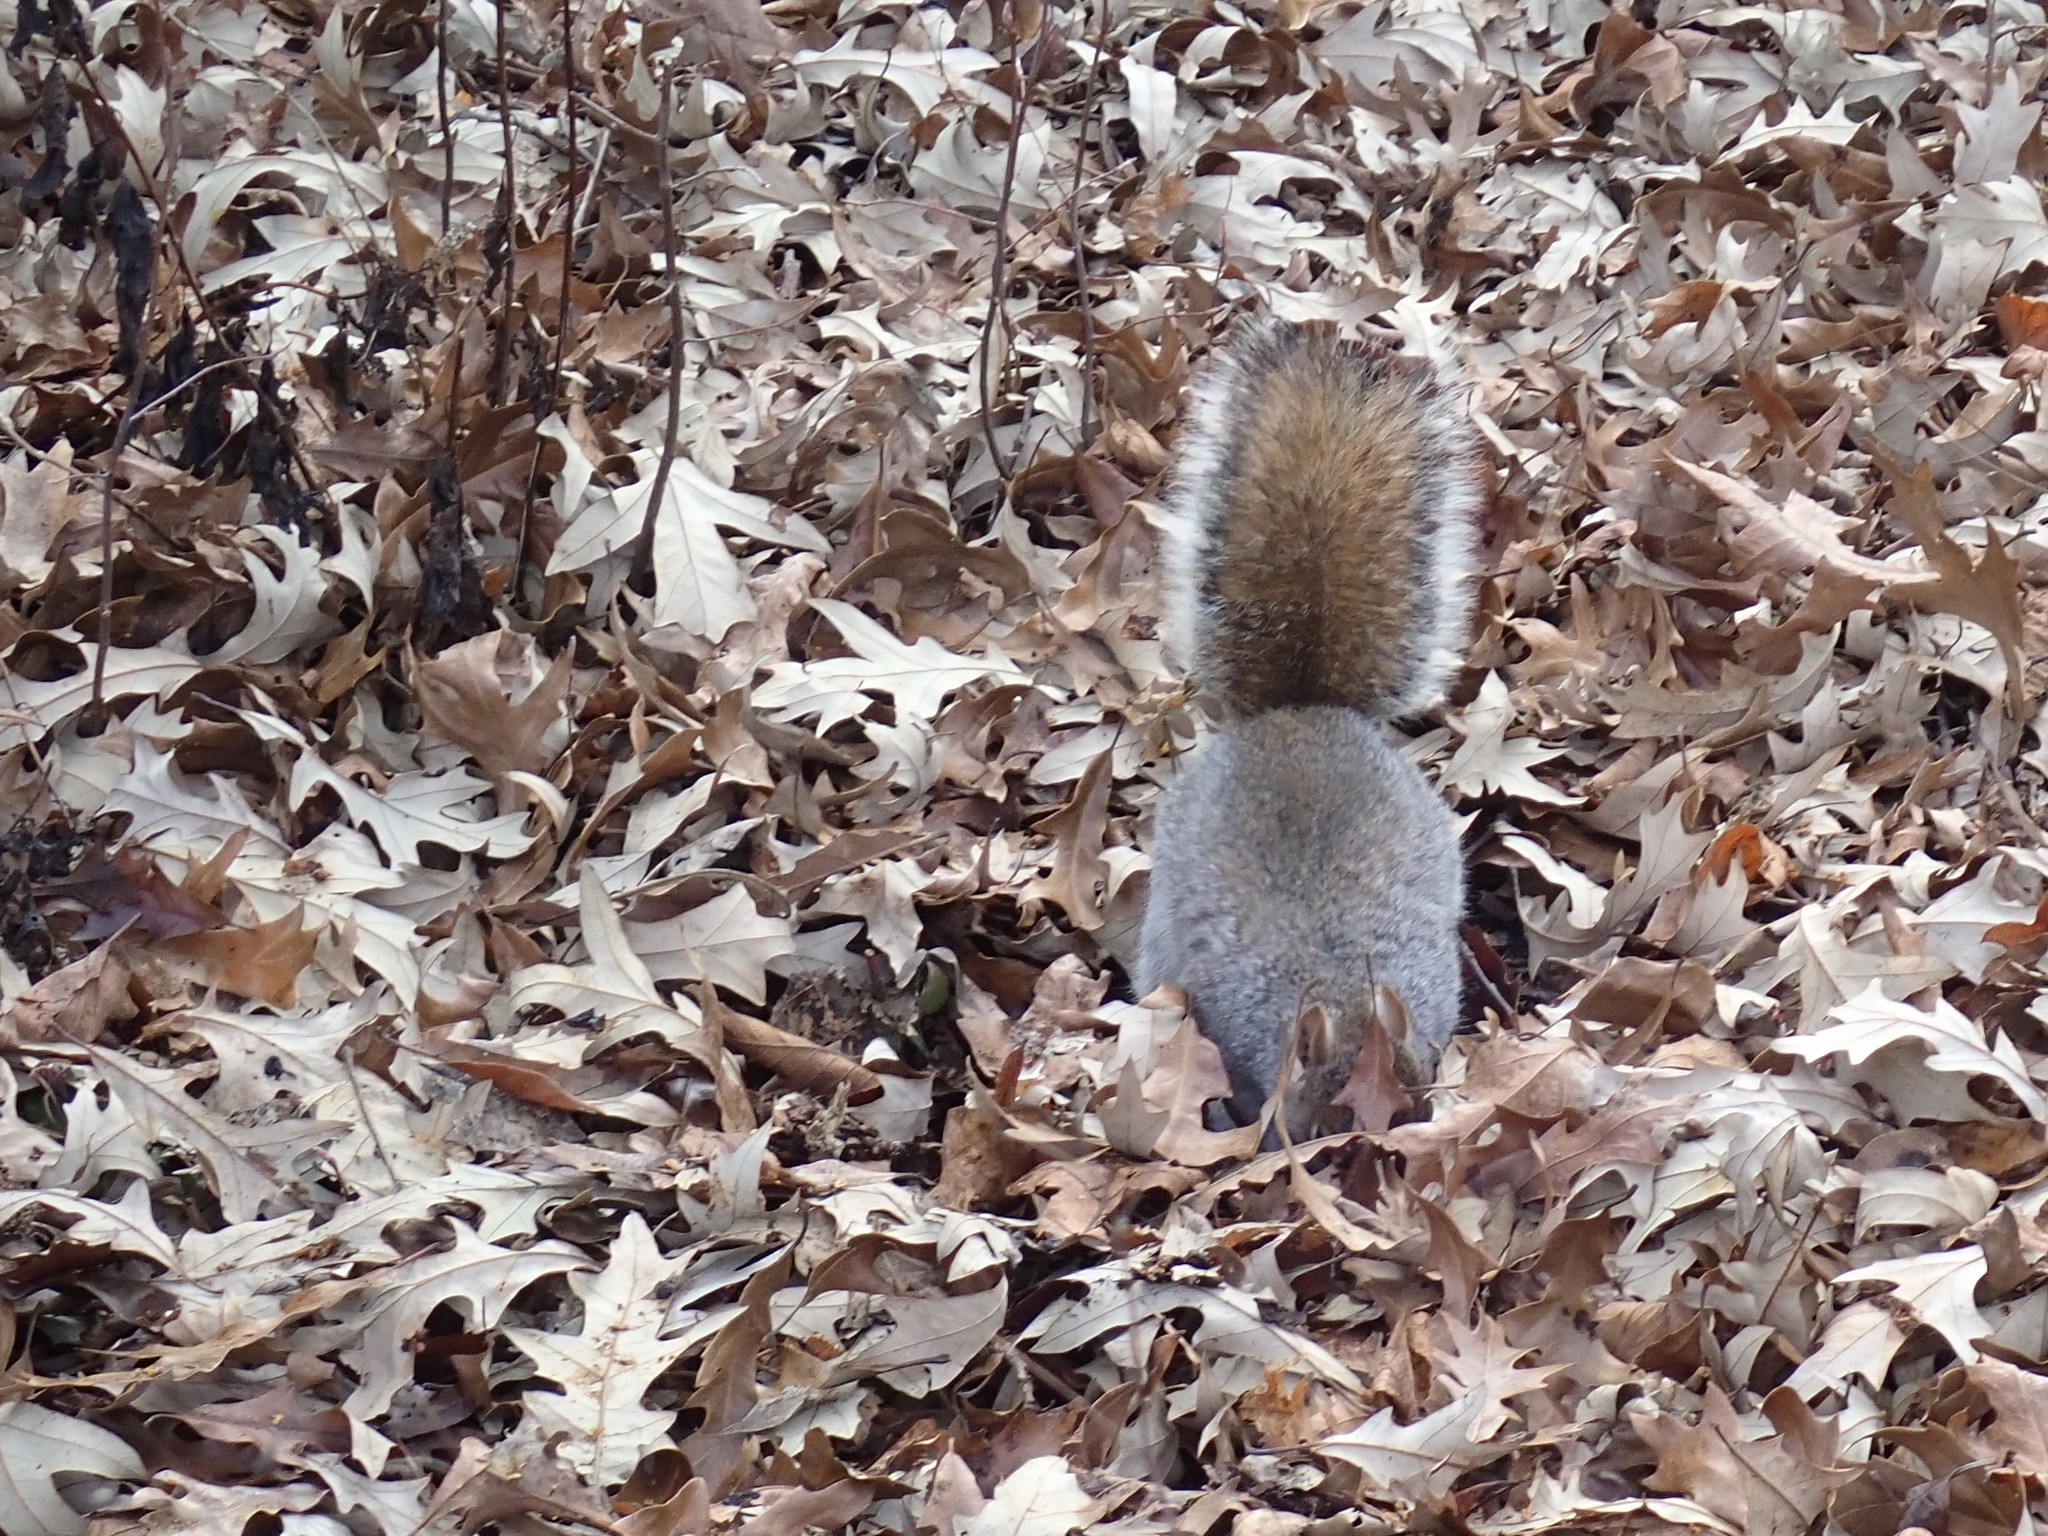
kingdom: Animalia
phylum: Chordata
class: Mammalia
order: Rodentia
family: Sciuridae
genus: Sciurus
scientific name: Sciurus carolinensis
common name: Eastern gray squirrel
